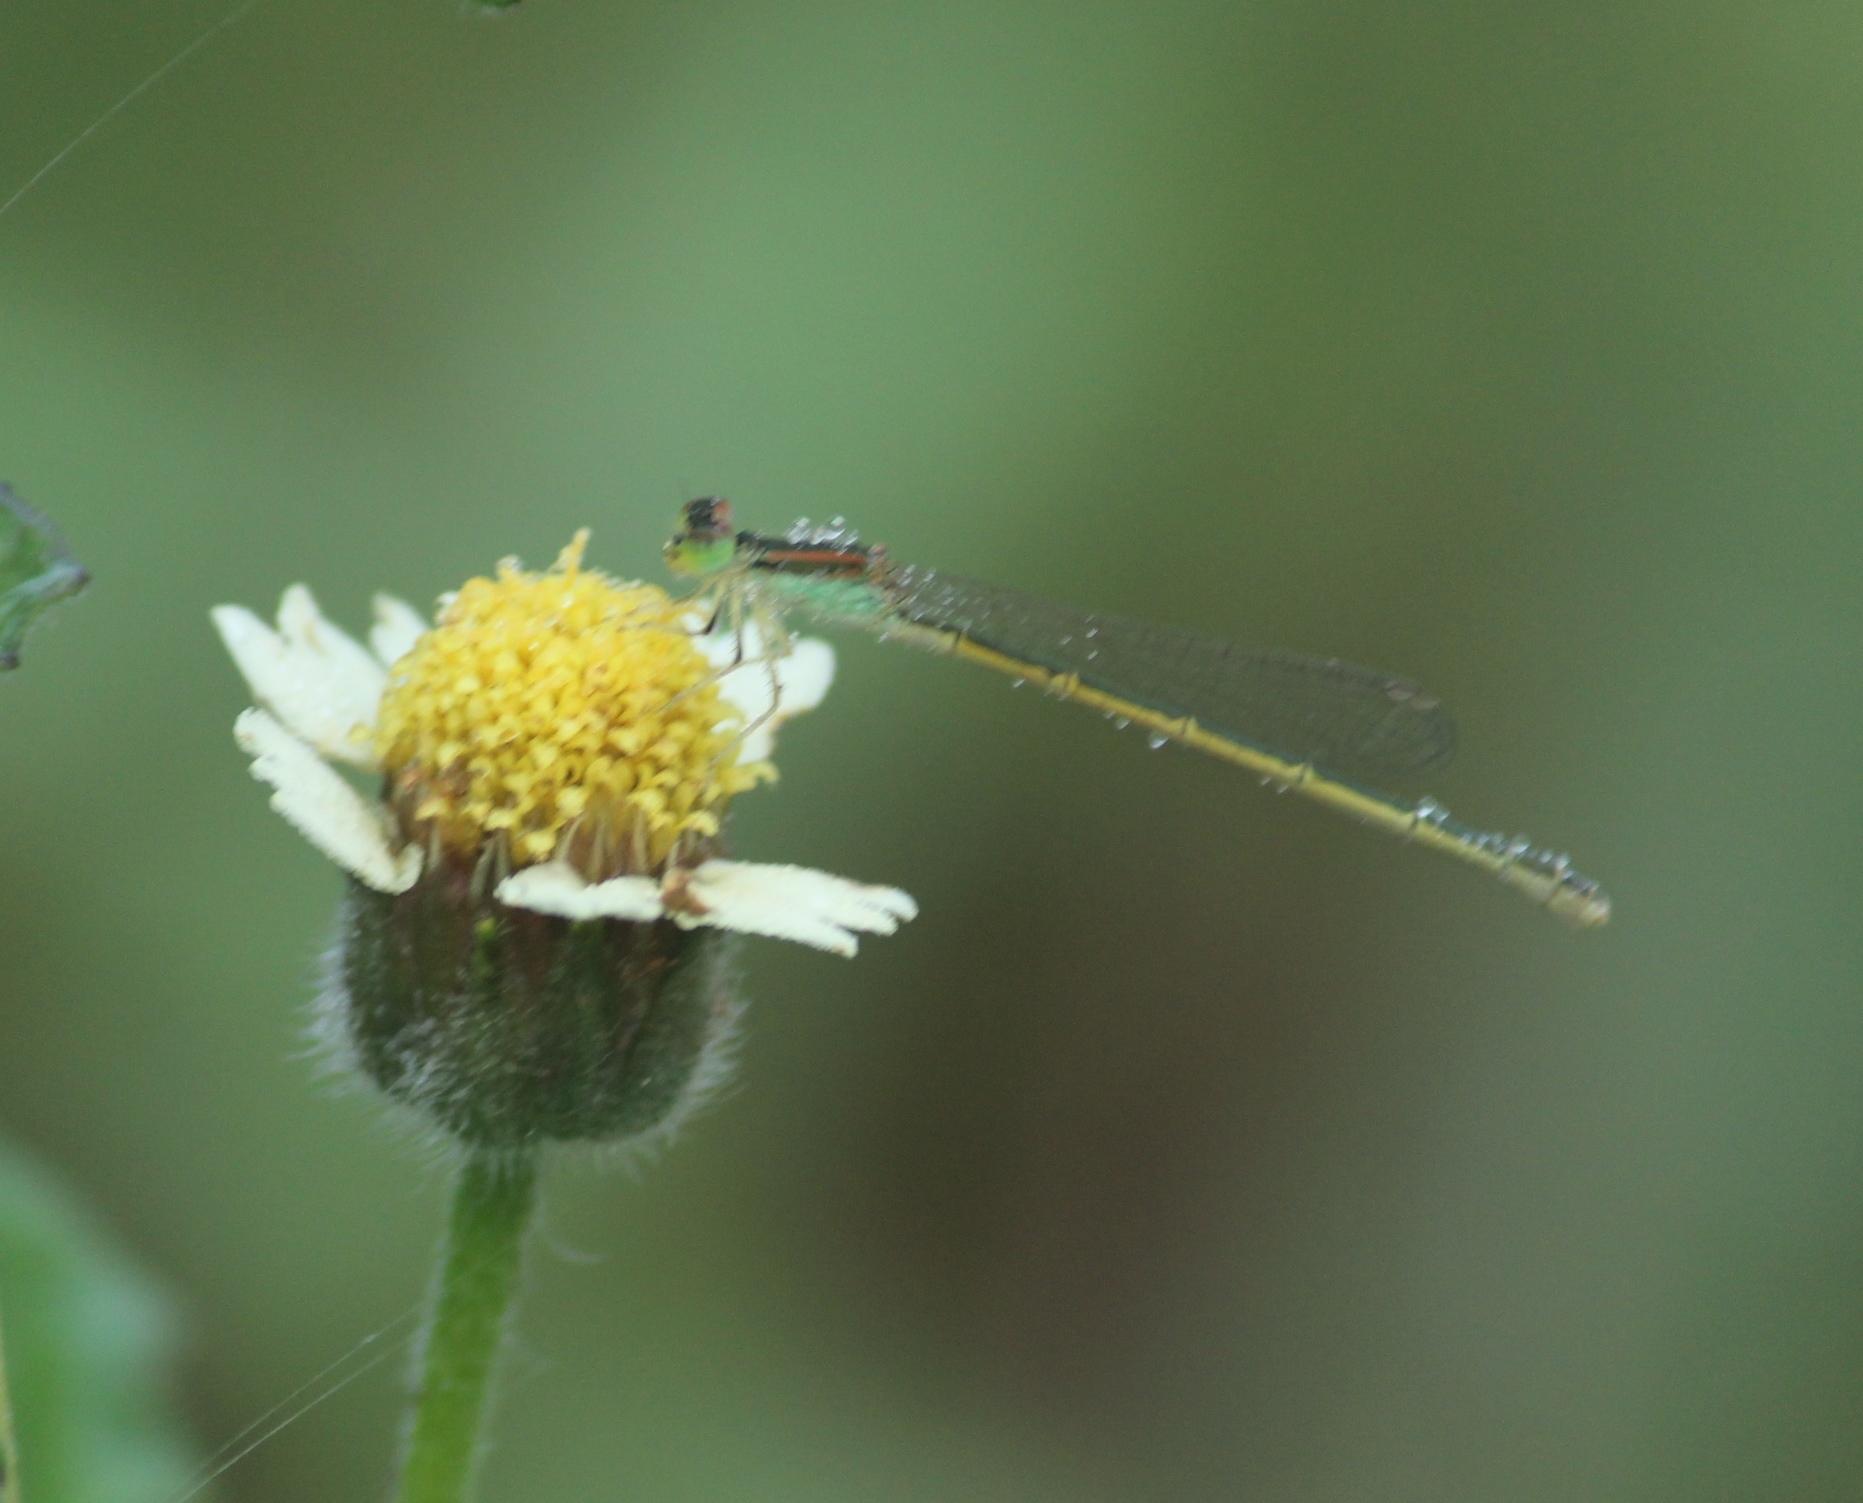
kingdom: Animalia
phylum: Arthropoda
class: Insecta
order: Odonata
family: Coenagrionidae
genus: Ischnura
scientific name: Ischnura rubilio
